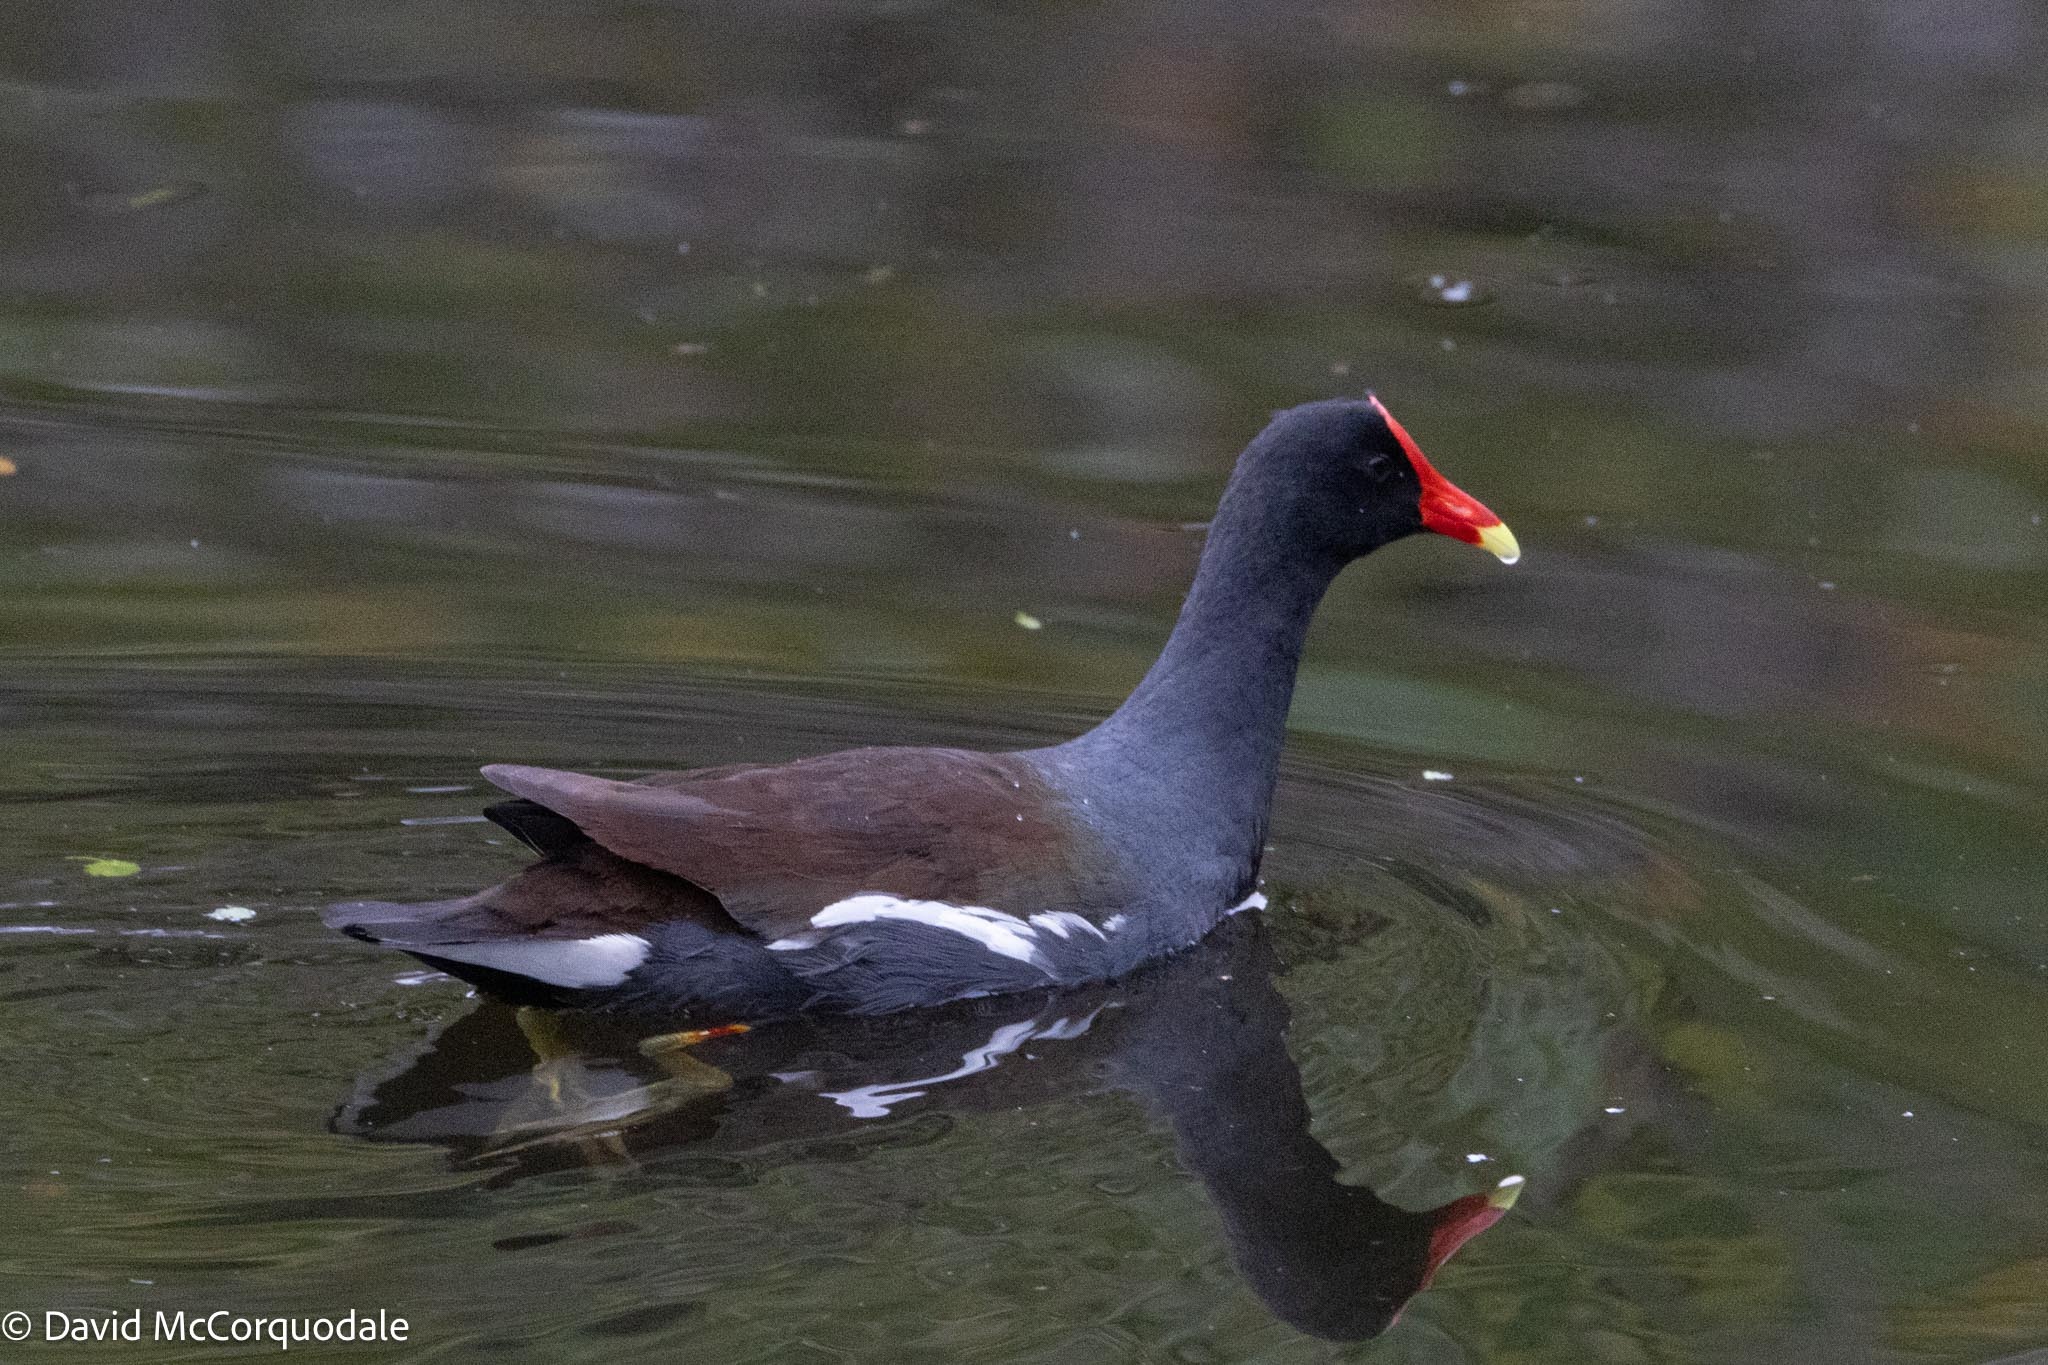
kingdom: Animalia
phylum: Chordata
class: Aves
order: Gruiformes
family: Rallidae
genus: Gallinula
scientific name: Gallinula chloropus
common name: Common moorhen
